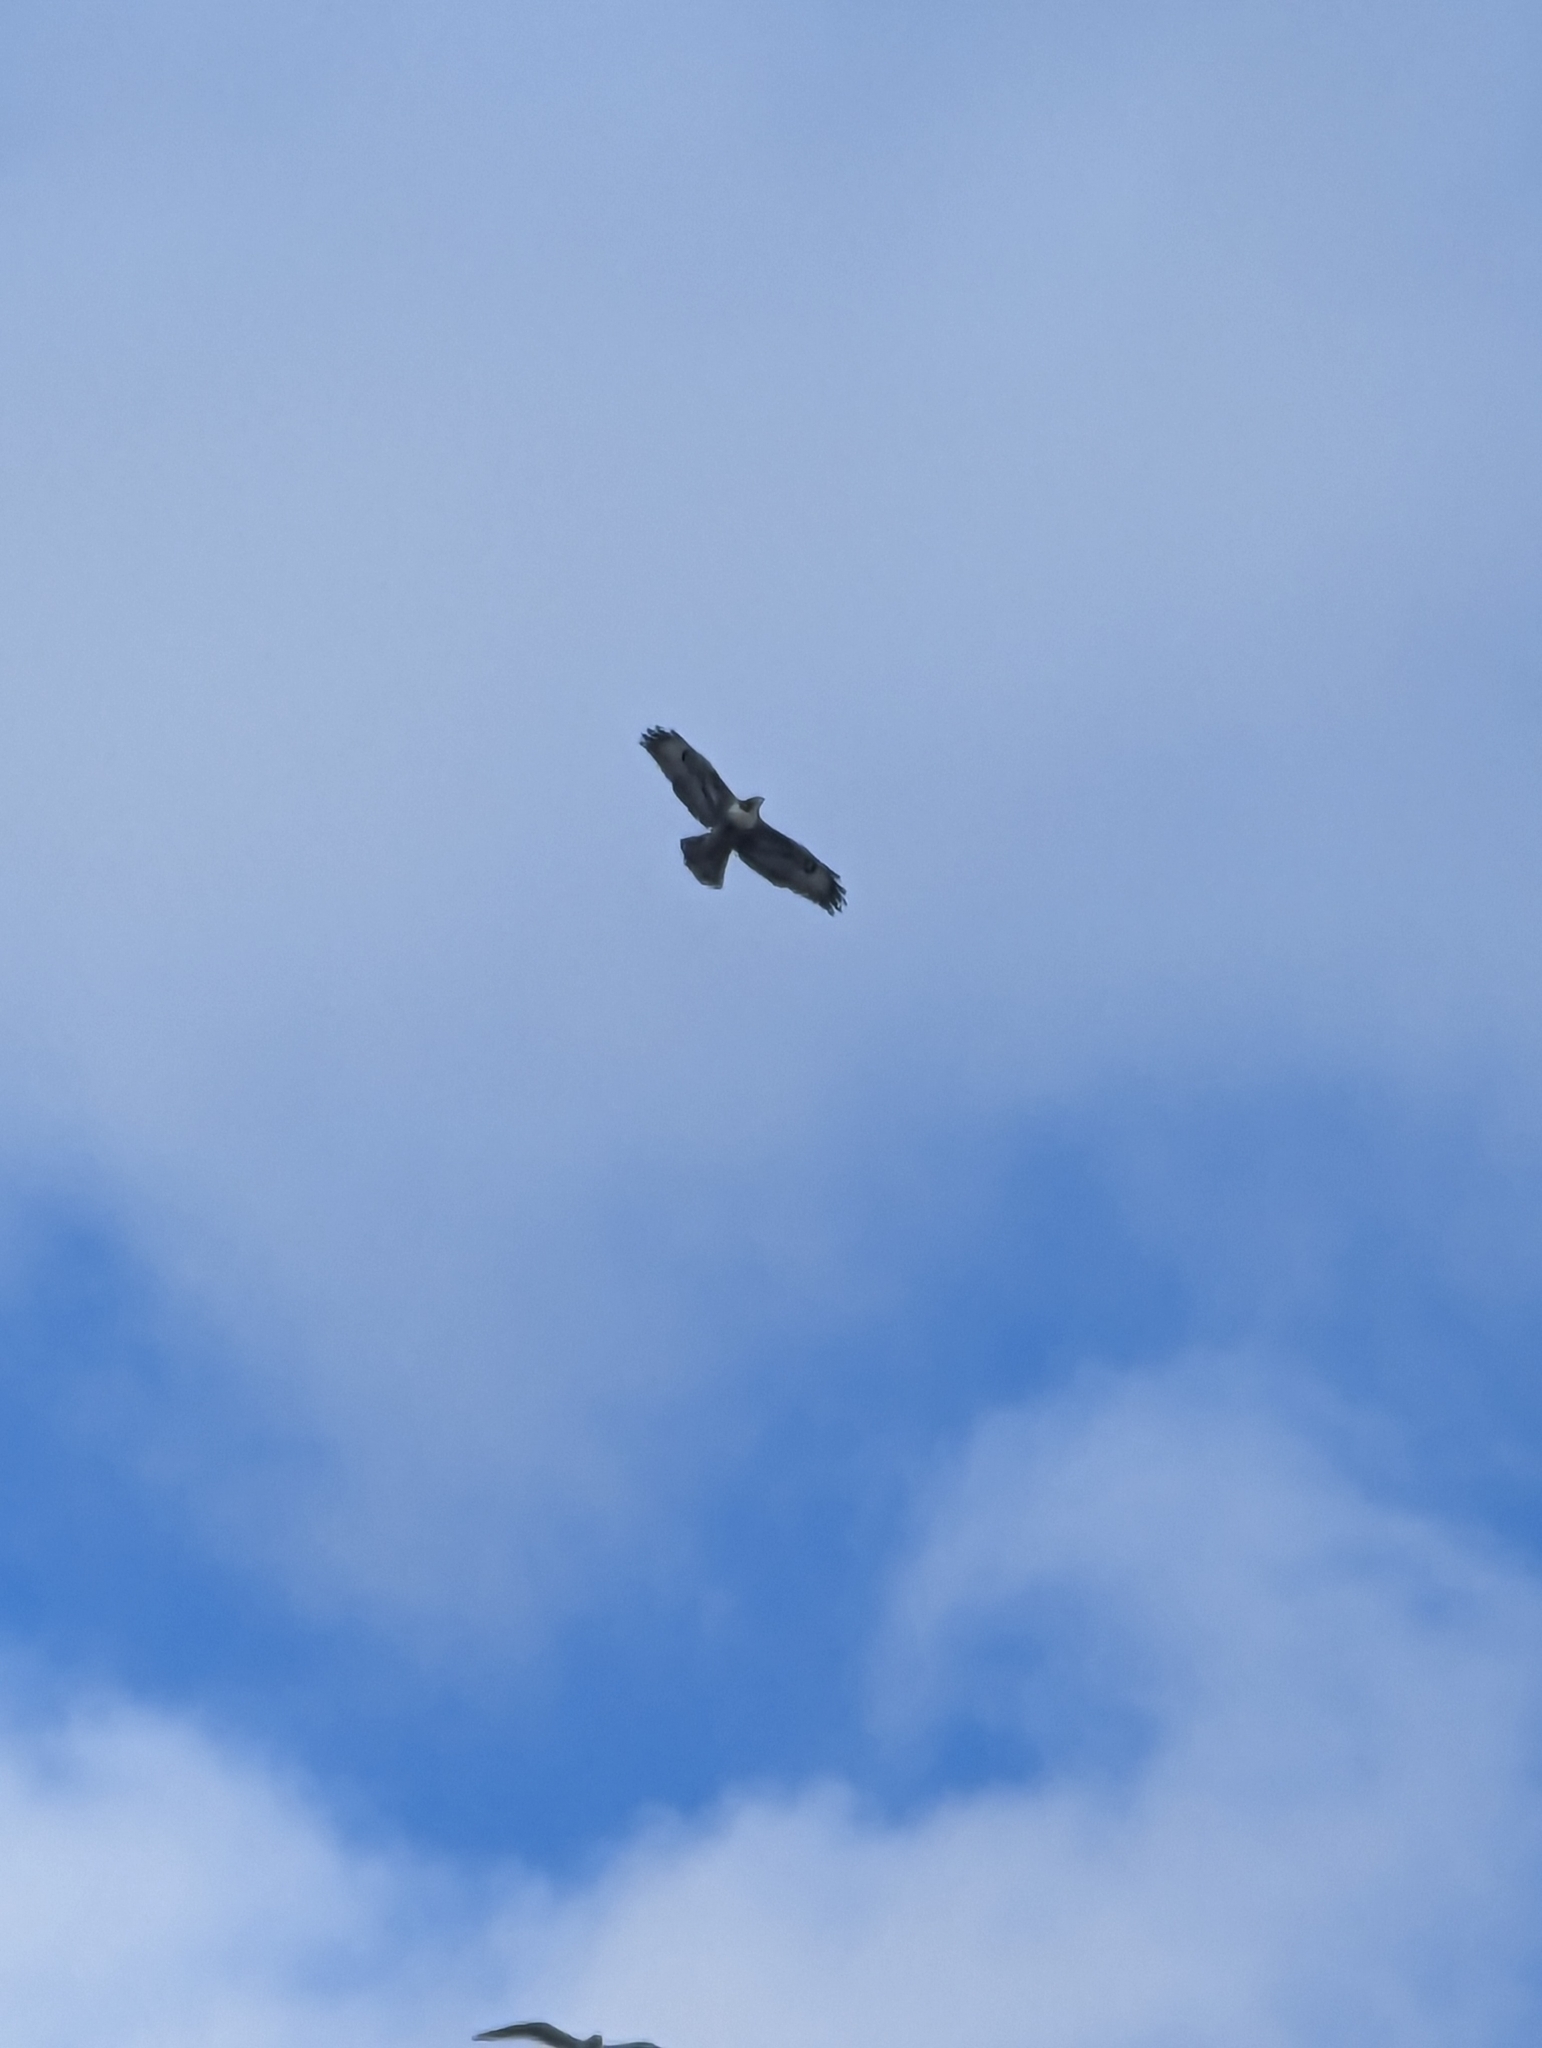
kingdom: Animalia
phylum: Chordata
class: Aves
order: Accipitriformes
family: Accipitridae
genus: Buteo
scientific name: Buteo jamaicensis
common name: Red-tailed hawk
